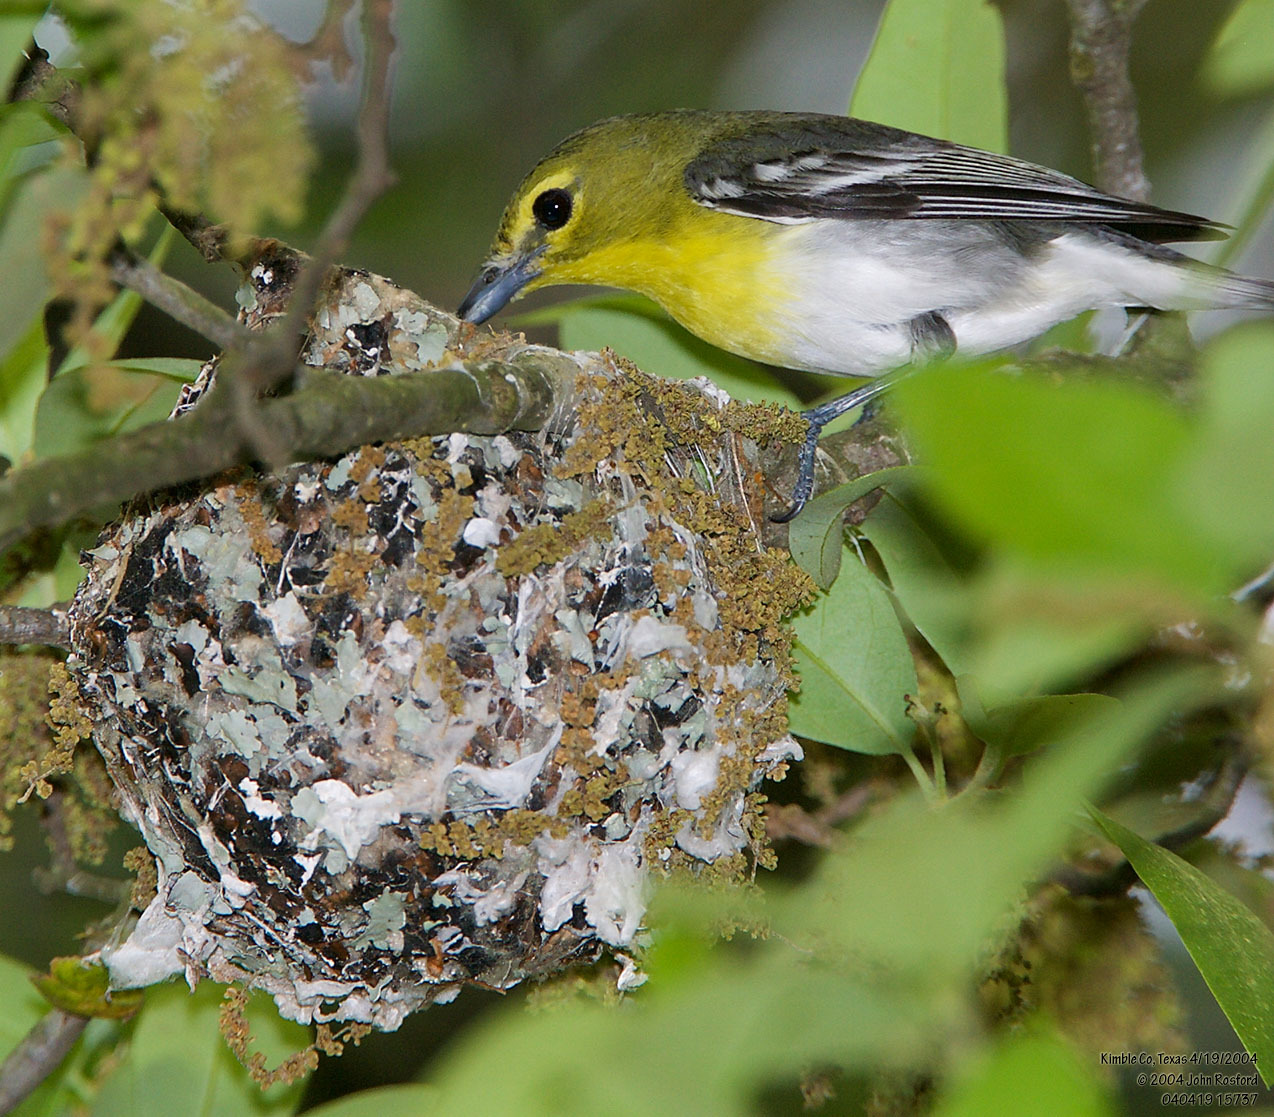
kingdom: Animalia
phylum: Chordata
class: Aves
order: Passeriformes
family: Vireonidae
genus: Vireo
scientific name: Vireo flavifrons
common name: Yellow-throated vireo
